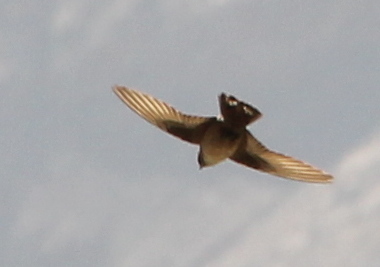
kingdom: Animalia
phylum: Chordata
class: Aves
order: Passeriformes
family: Hirundinidae
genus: Ptyonoprogne
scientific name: Ptyonoprogne rupestris
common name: Eurasian crag martin
